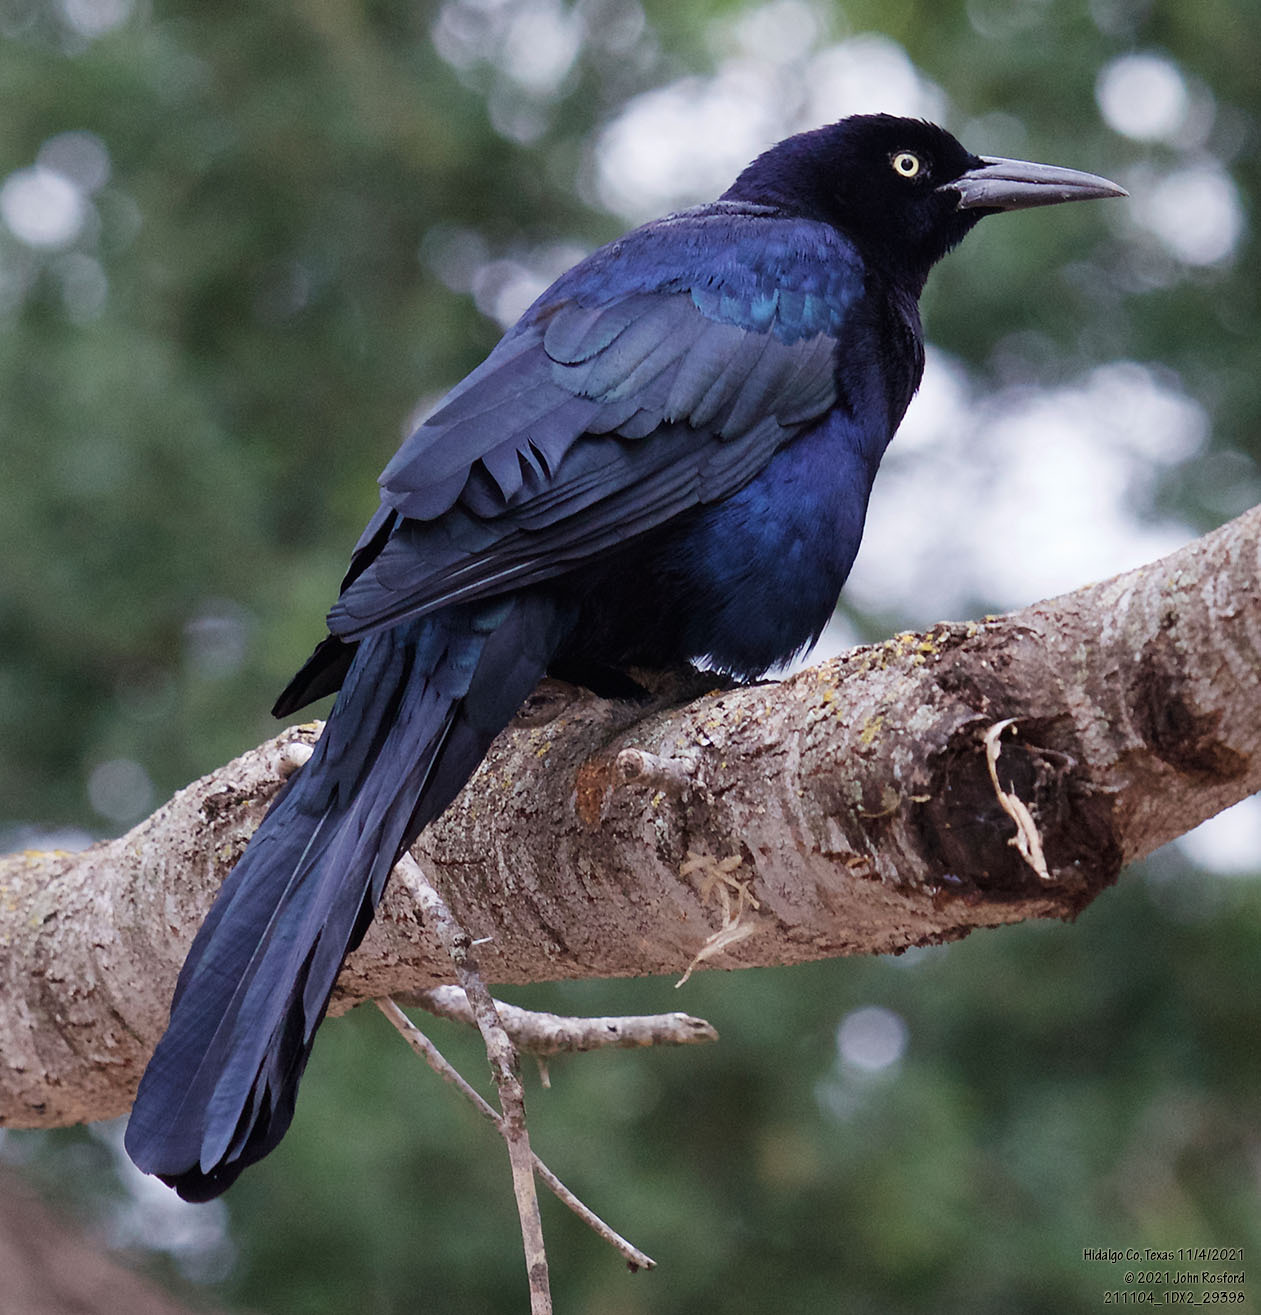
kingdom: Animalia
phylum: Chordata
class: Aves
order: Passeriformes
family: Icteridae
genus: Quiscalus
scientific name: Quiscalus mexicanus
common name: Great-tailed grackle
